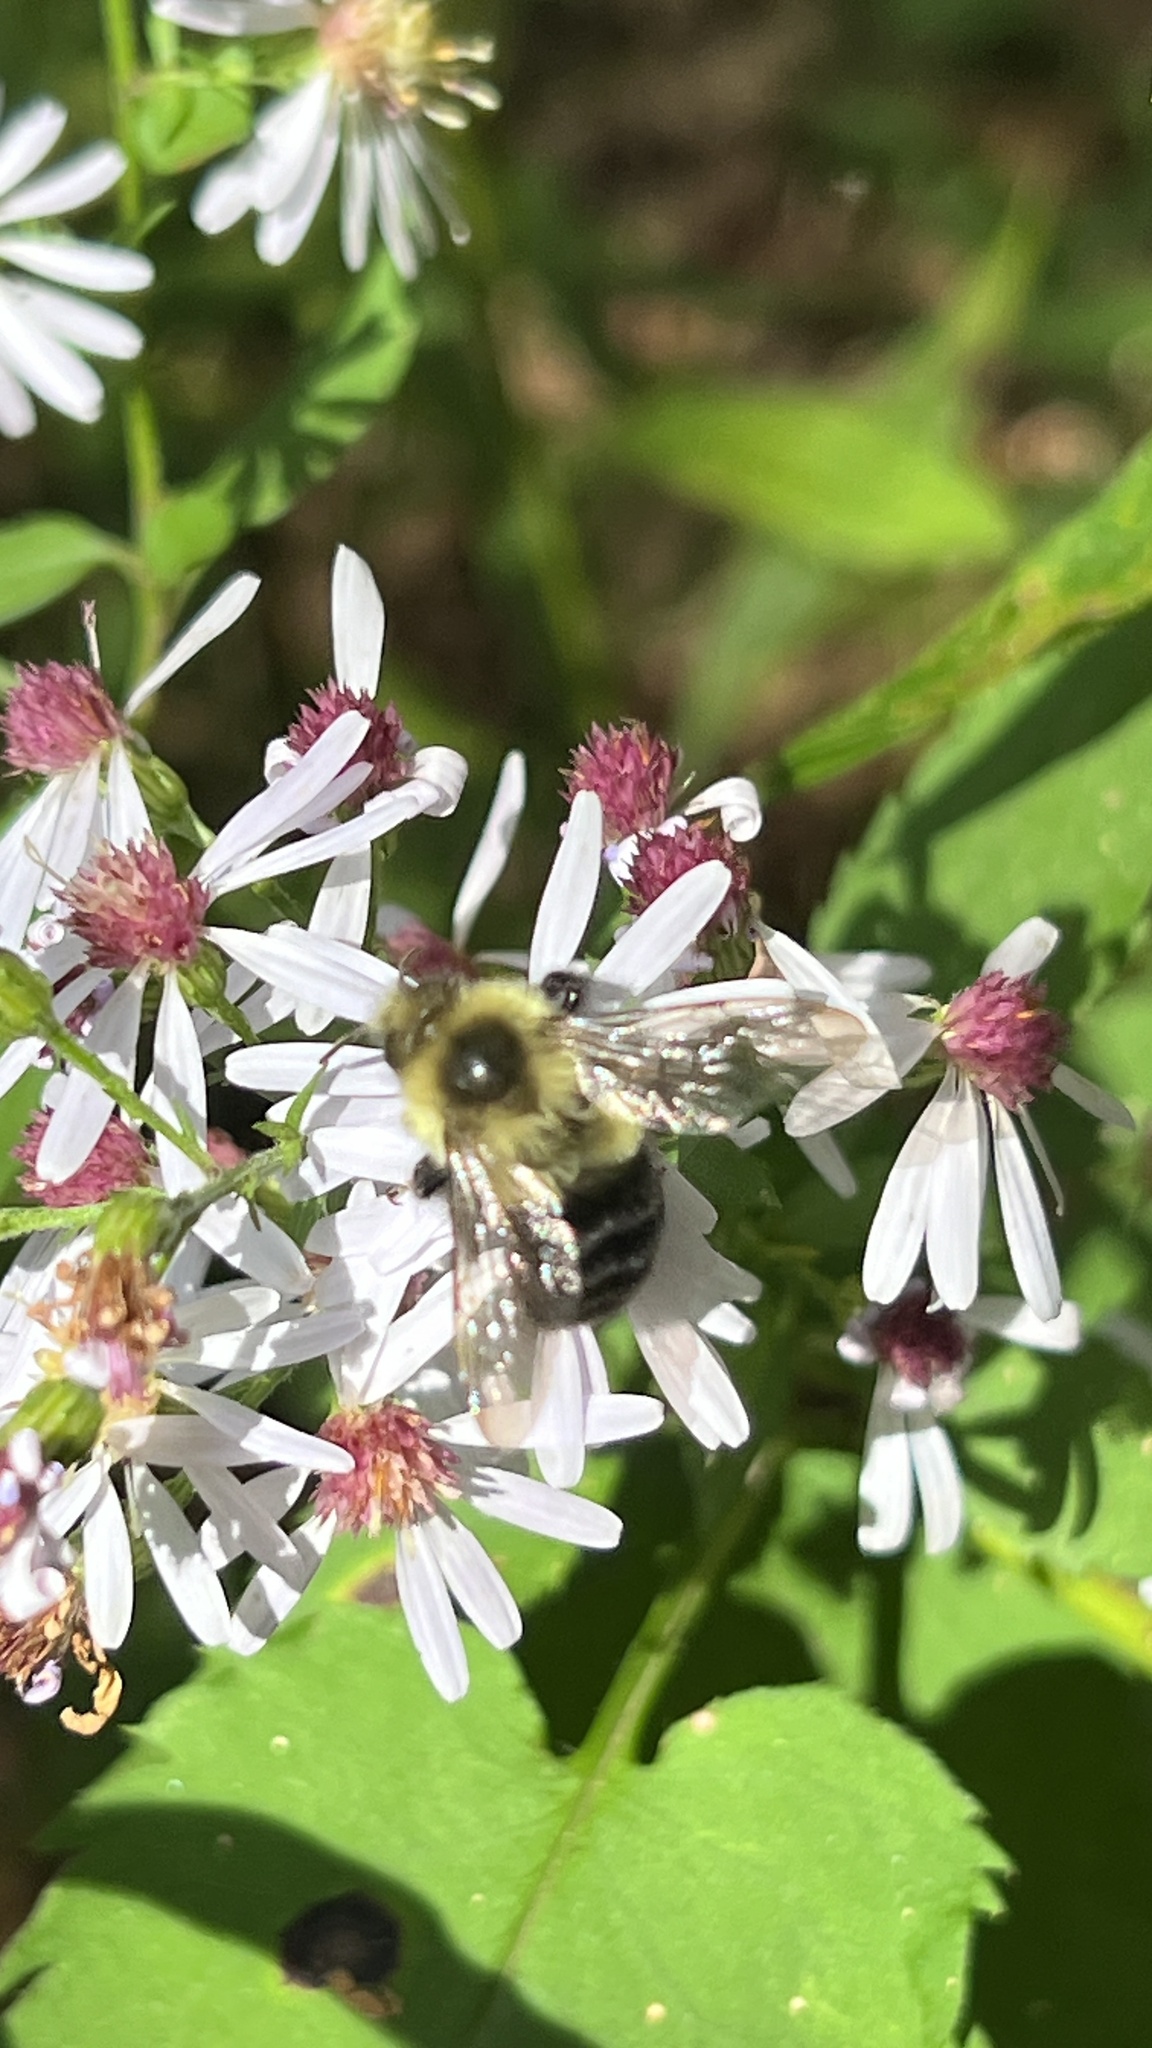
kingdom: Animalia
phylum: Arthropoda
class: Insecta
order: Hymenoptera
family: Apidae
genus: Bombus
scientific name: Bombus impatiens
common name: Common eastern bumble bee
